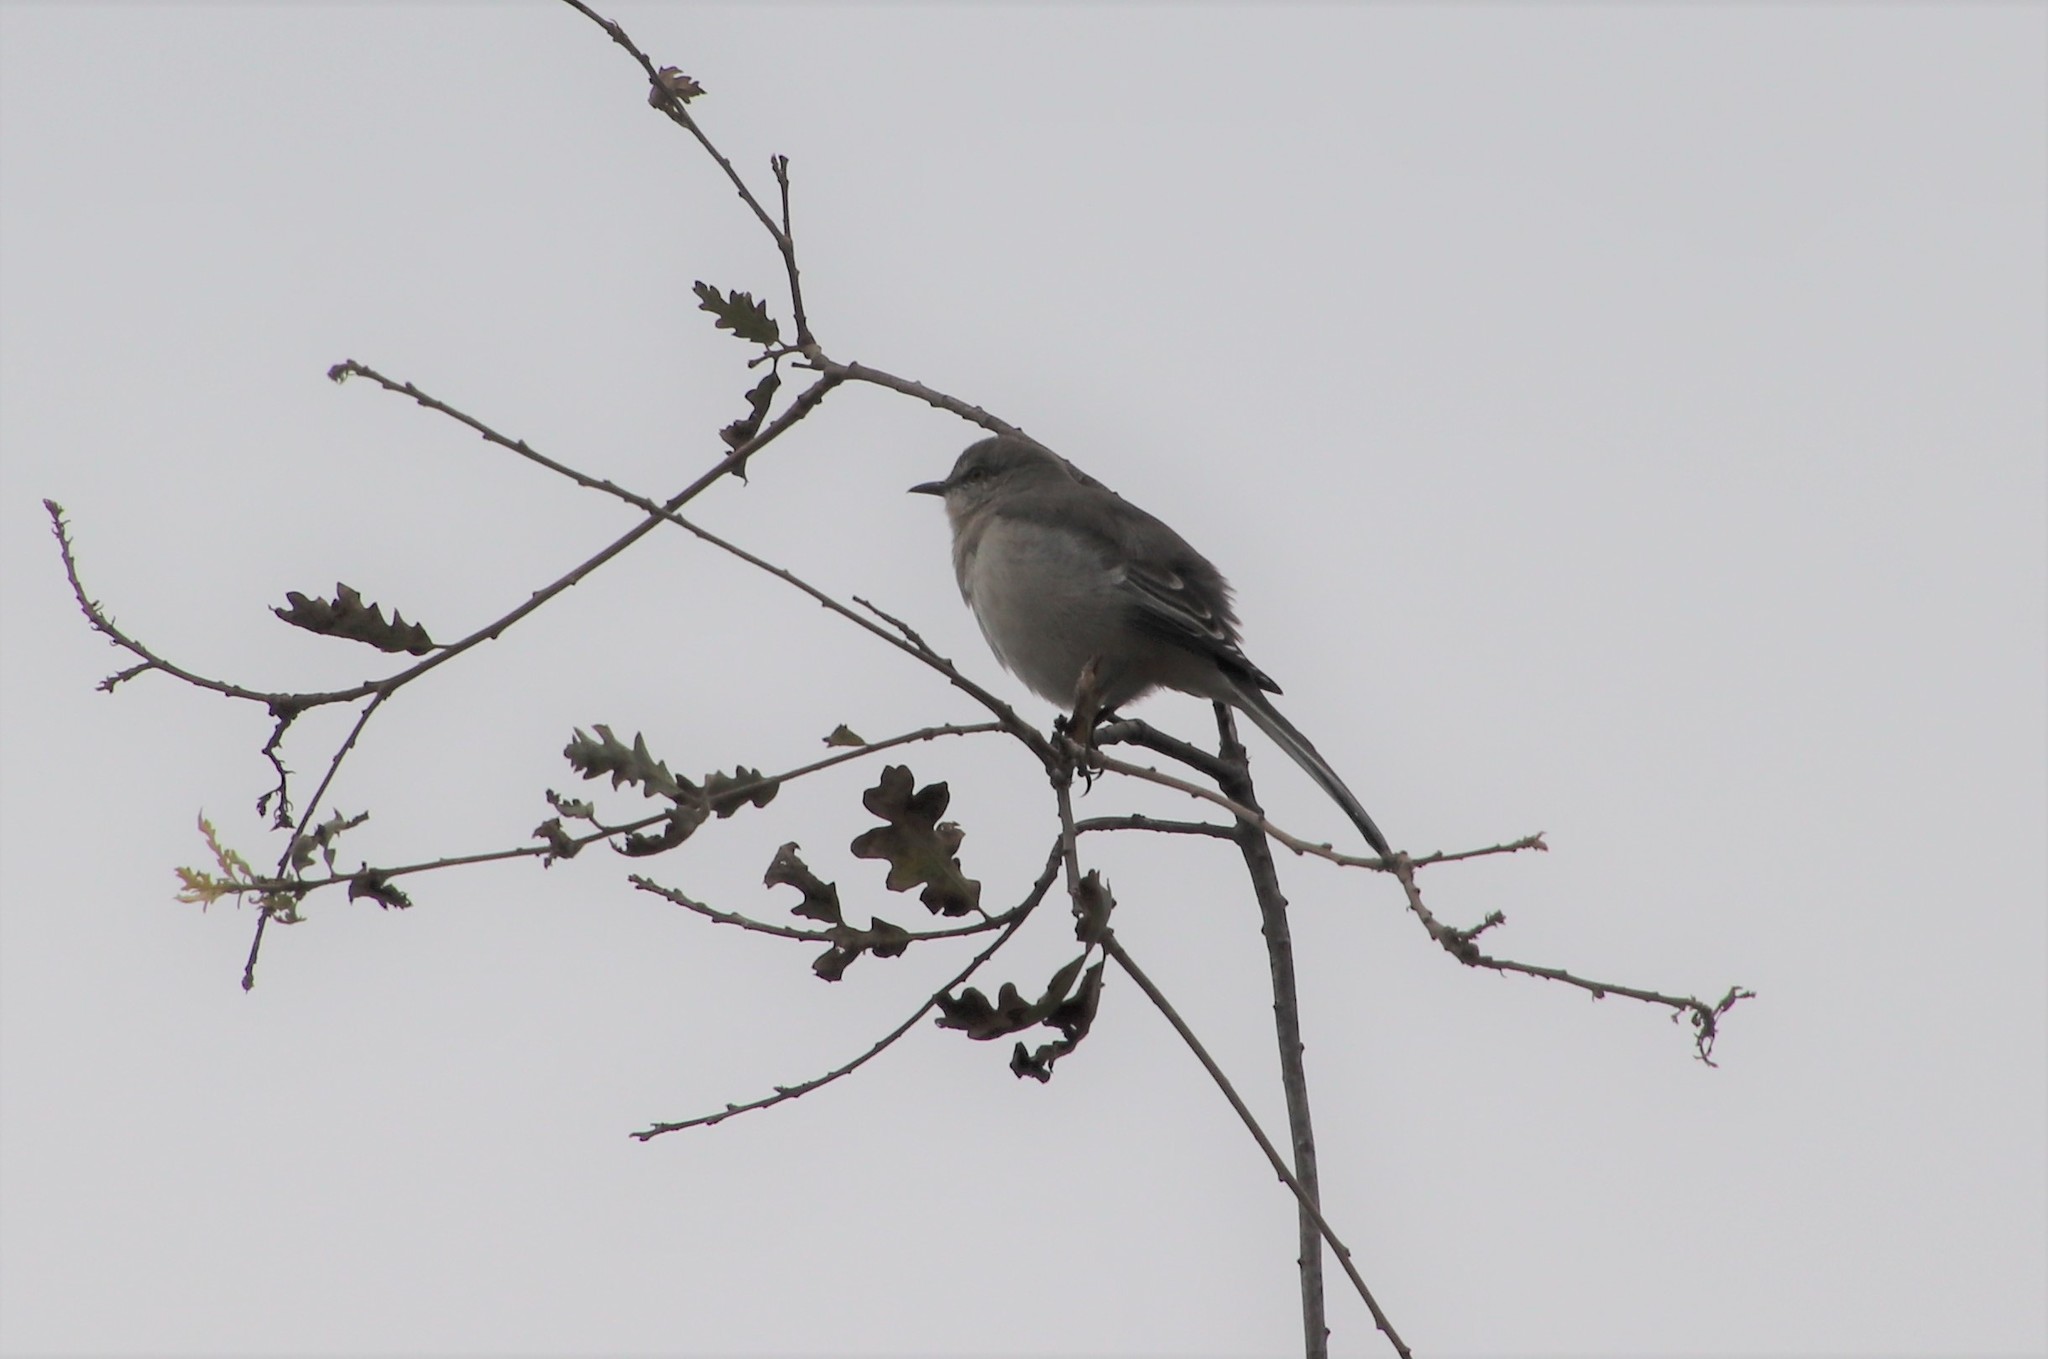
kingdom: Animalia
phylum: Chordata
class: Aves
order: Passeriformes
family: Mimidae
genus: Mimus
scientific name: Mimus polyglottos
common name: Northern mockingbird
